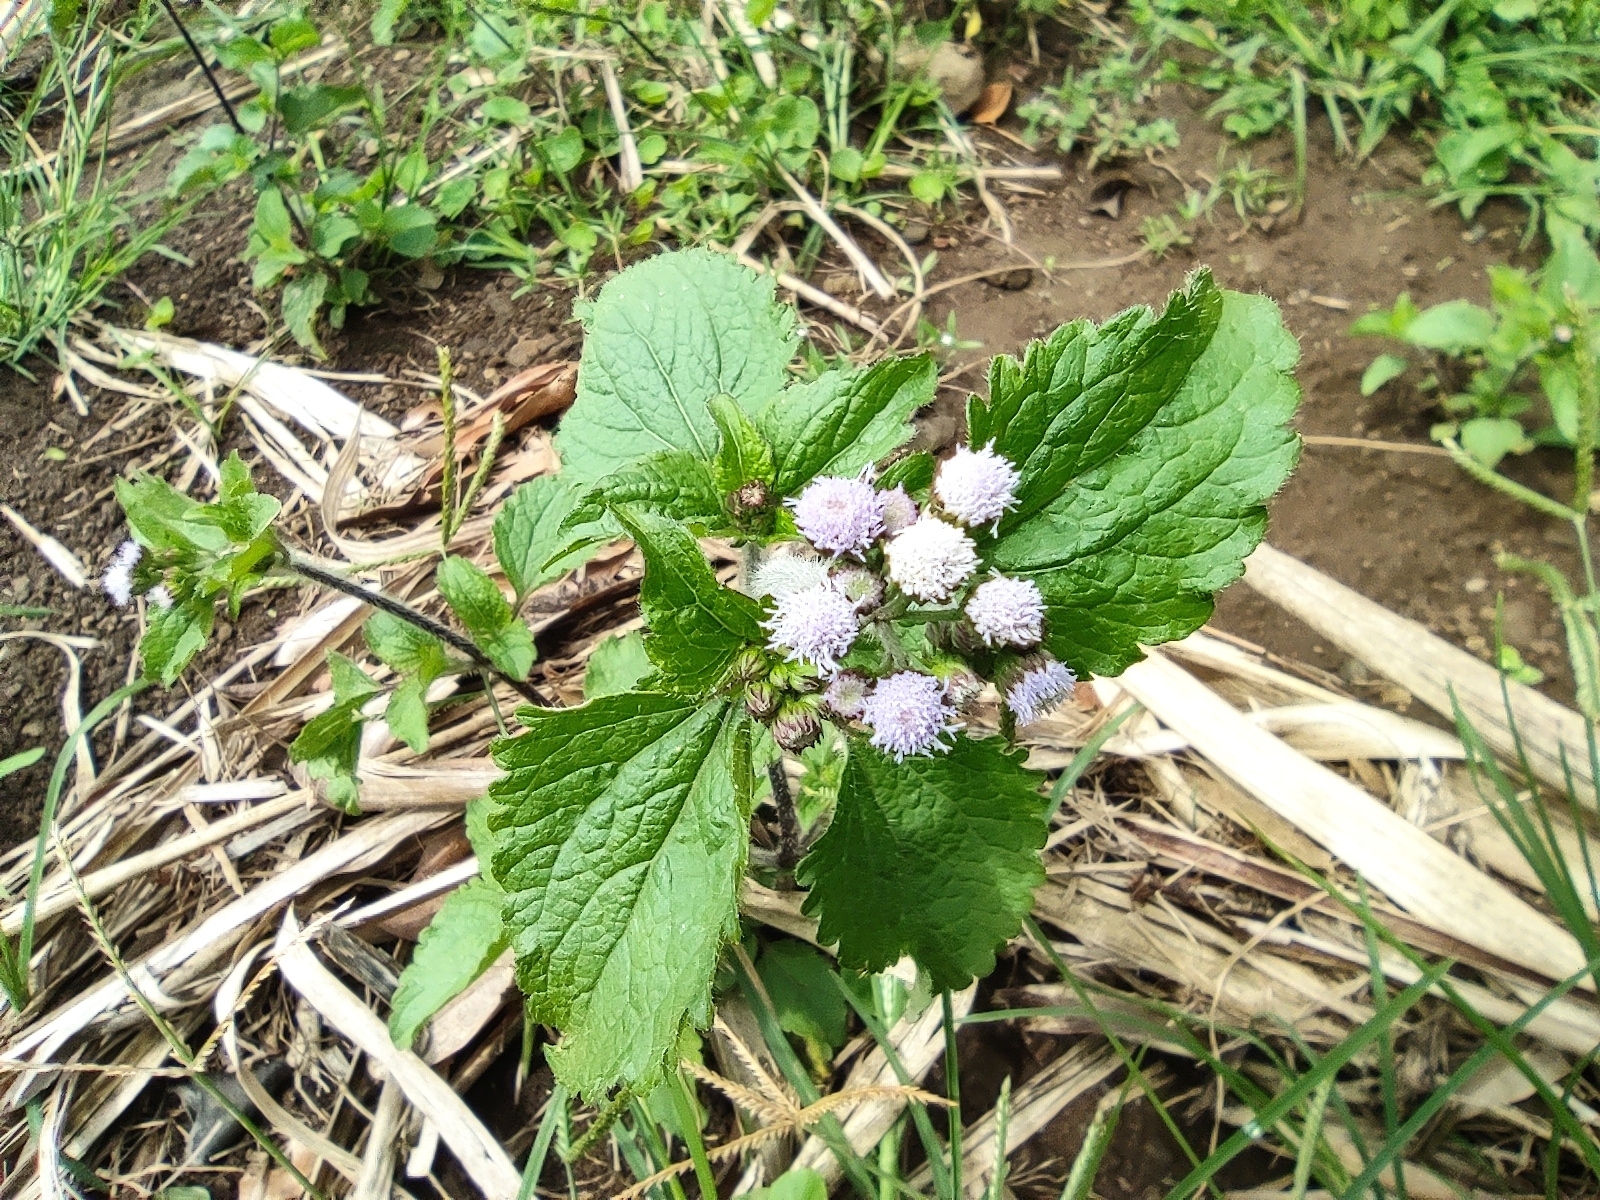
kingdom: Plantae
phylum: Tracheophyta
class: Magnoliopsida
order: Asterales
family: Asteraceae
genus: Ageratum
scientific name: Ageratum conyzoides
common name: Tropical whiteweed
